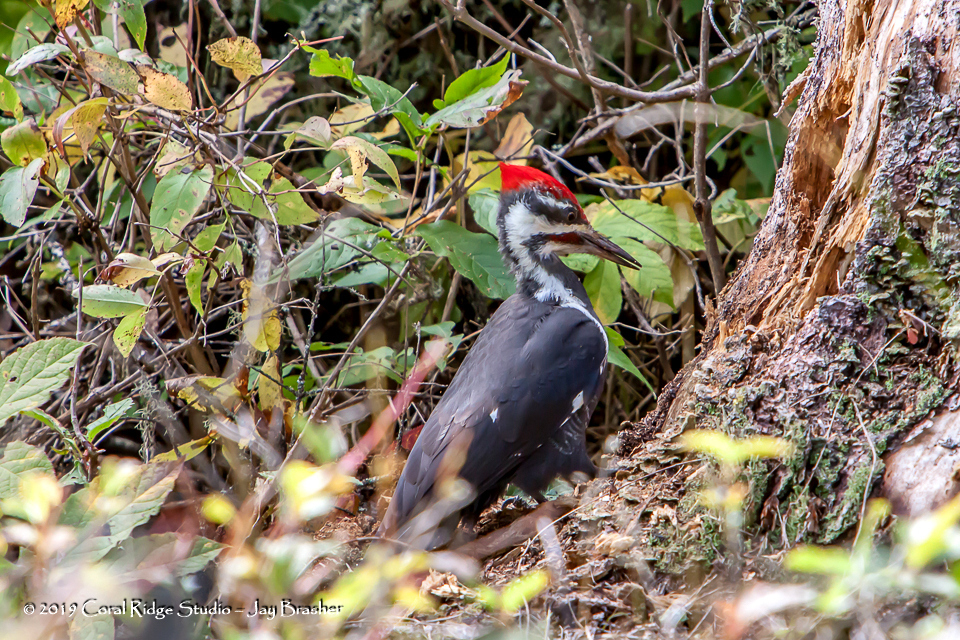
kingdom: Animalia
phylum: Chordata
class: Aves
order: Piciformes
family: Picidae
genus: Dryocopus
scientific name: Dryocopus pileatus
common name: Pileated woodpecker
